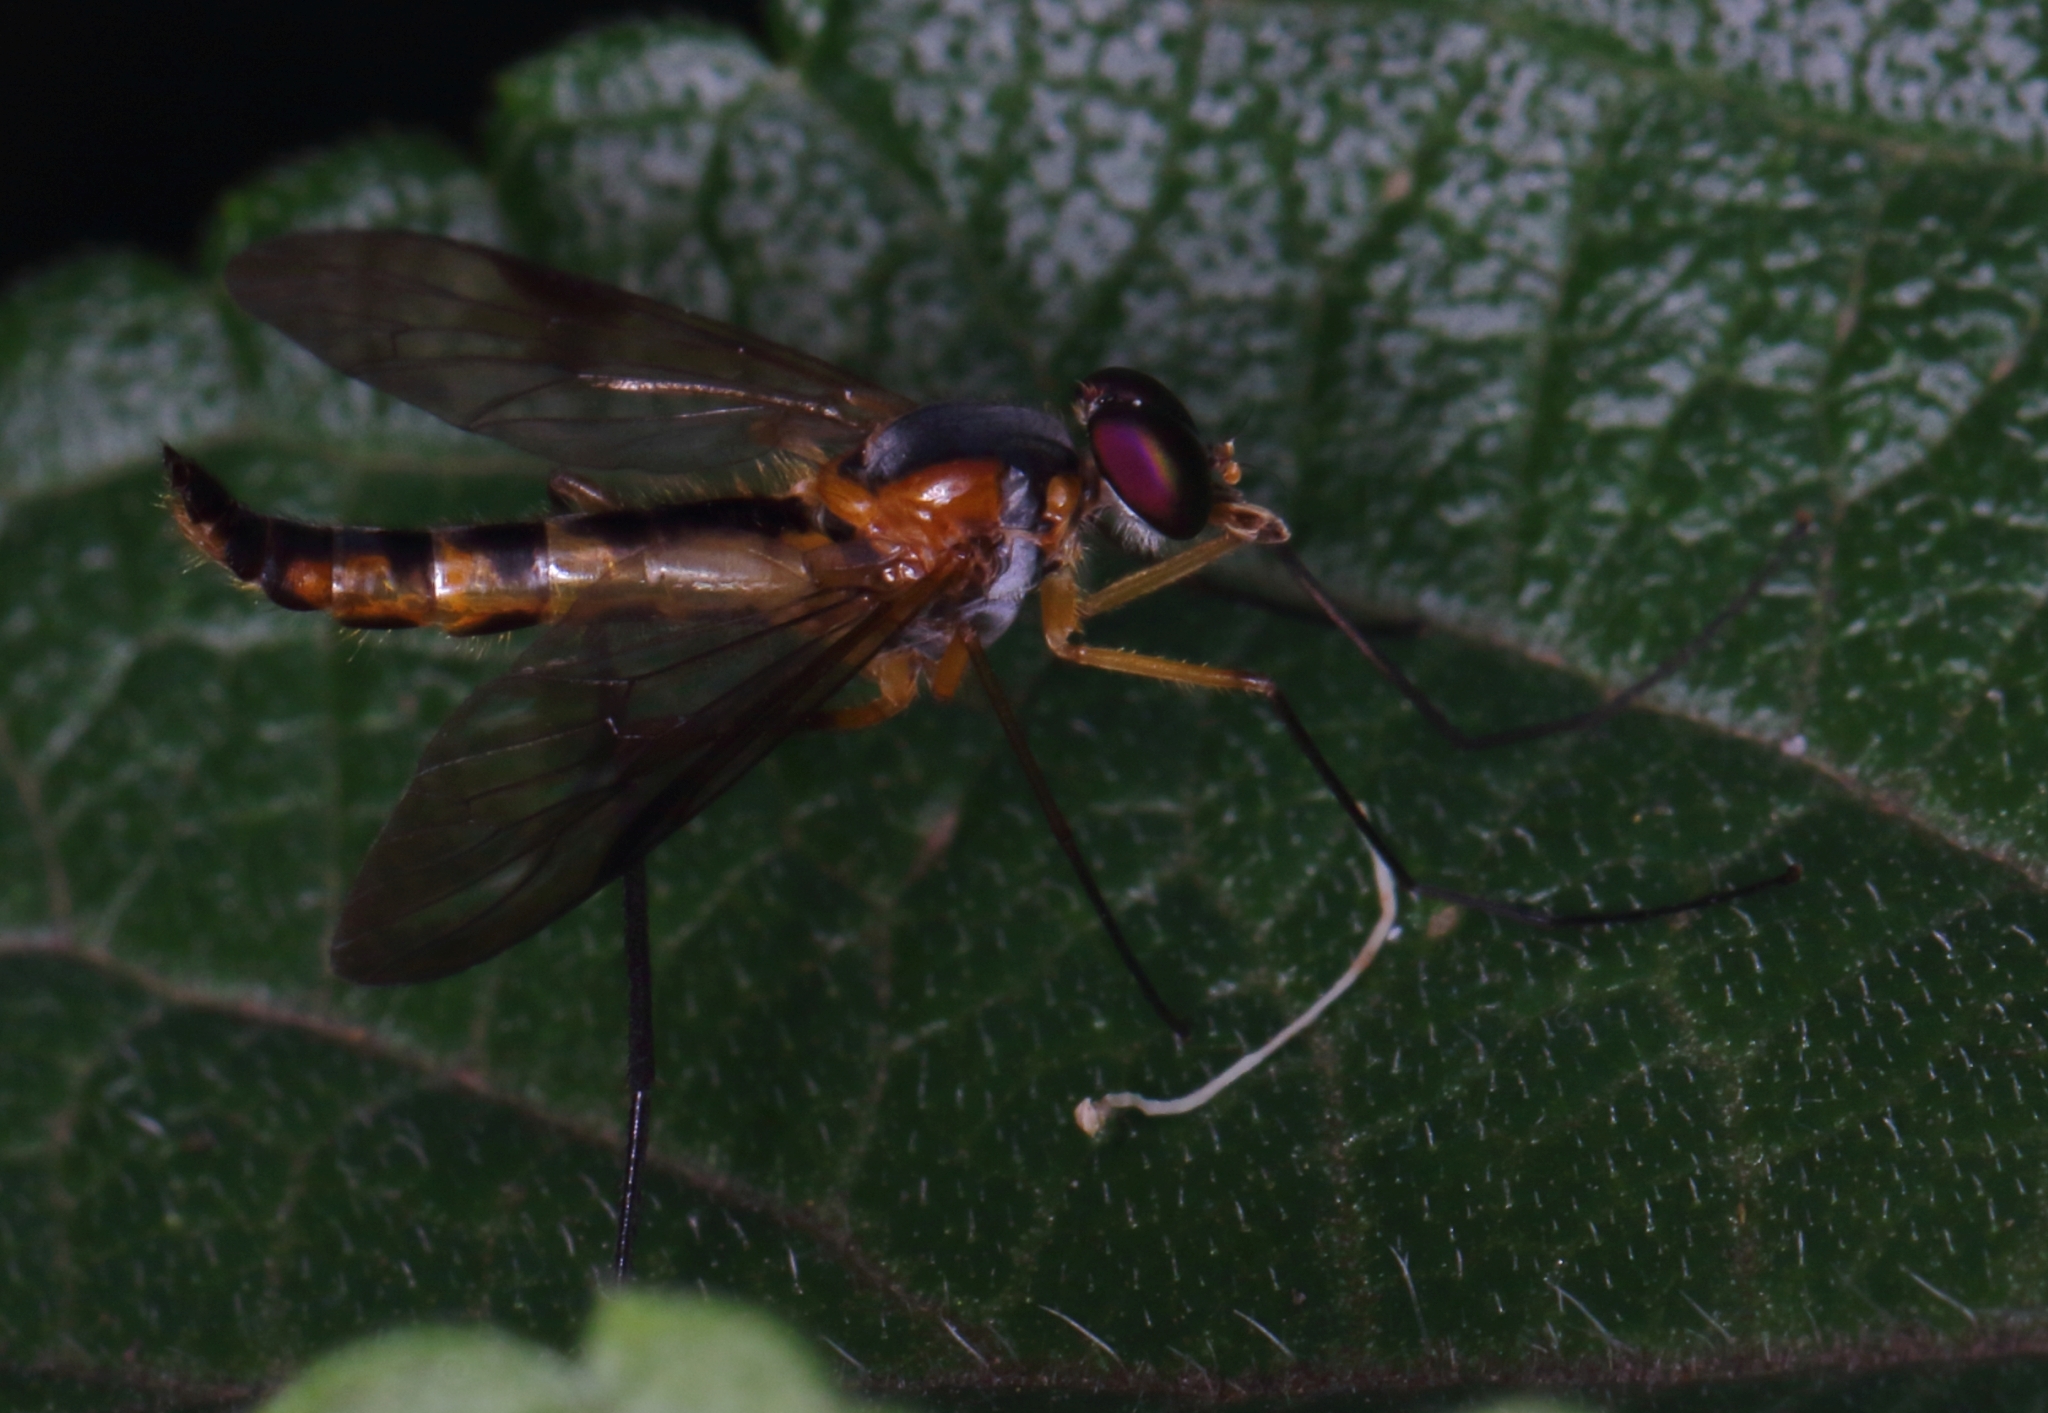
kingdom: Animalia
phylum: Arthropoda
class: Insecta
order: Diptera
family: Athericidae
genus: Suragina
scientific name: Suragina bivittata
